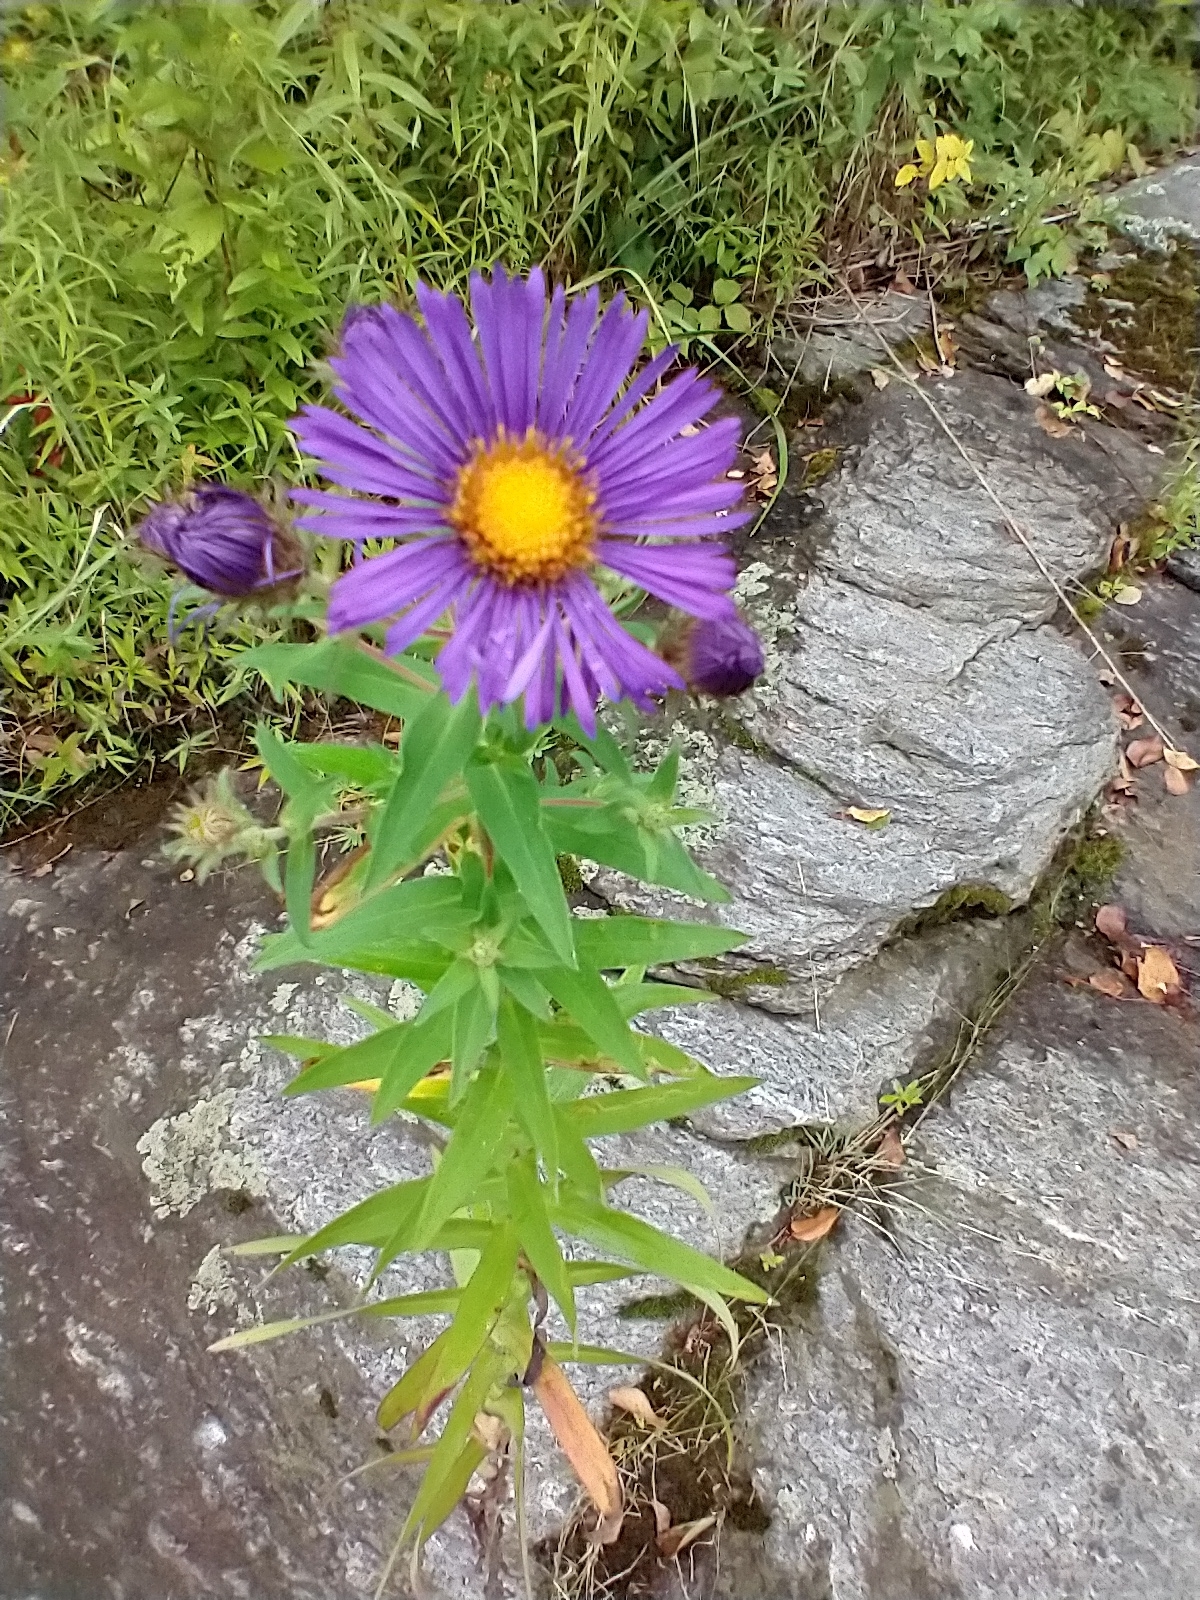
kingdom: Plantae
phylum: Tracheophyta
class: Magnoliopsida
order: Asterales
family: Asteraceae
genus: Symphyotrichum
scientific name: Symphyotrichum novae-angliae
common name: Michaelmas daisy
